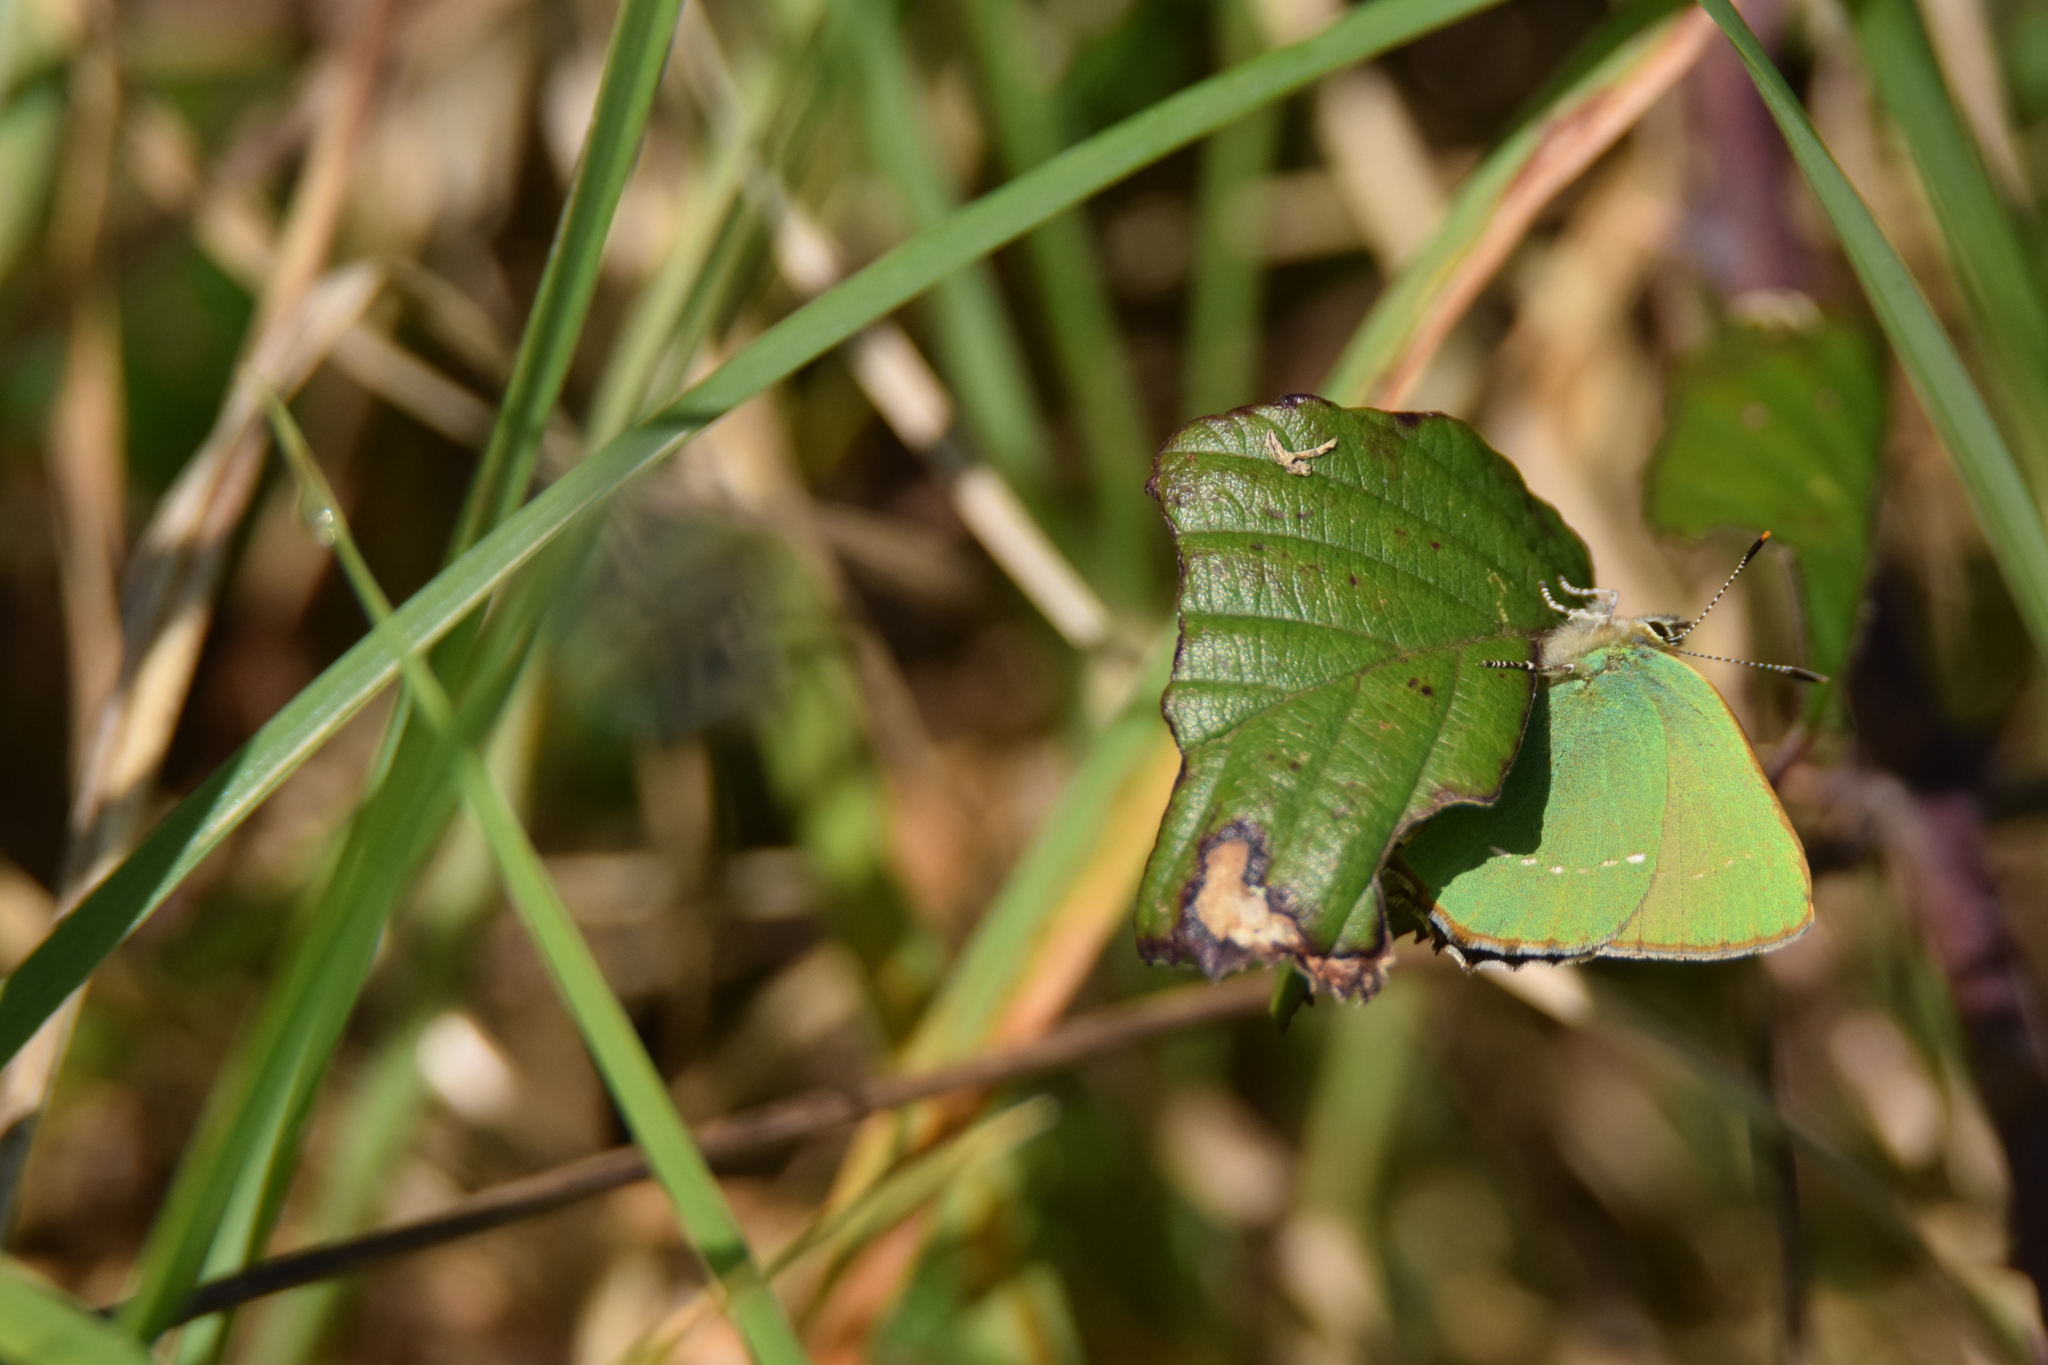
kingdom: Animalia
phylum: Arthropoda
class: Insecta
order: Lepidoptera
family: Lycaenidae
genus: Callophrys
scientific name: Callophrys rubi
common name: Green hairstreak
